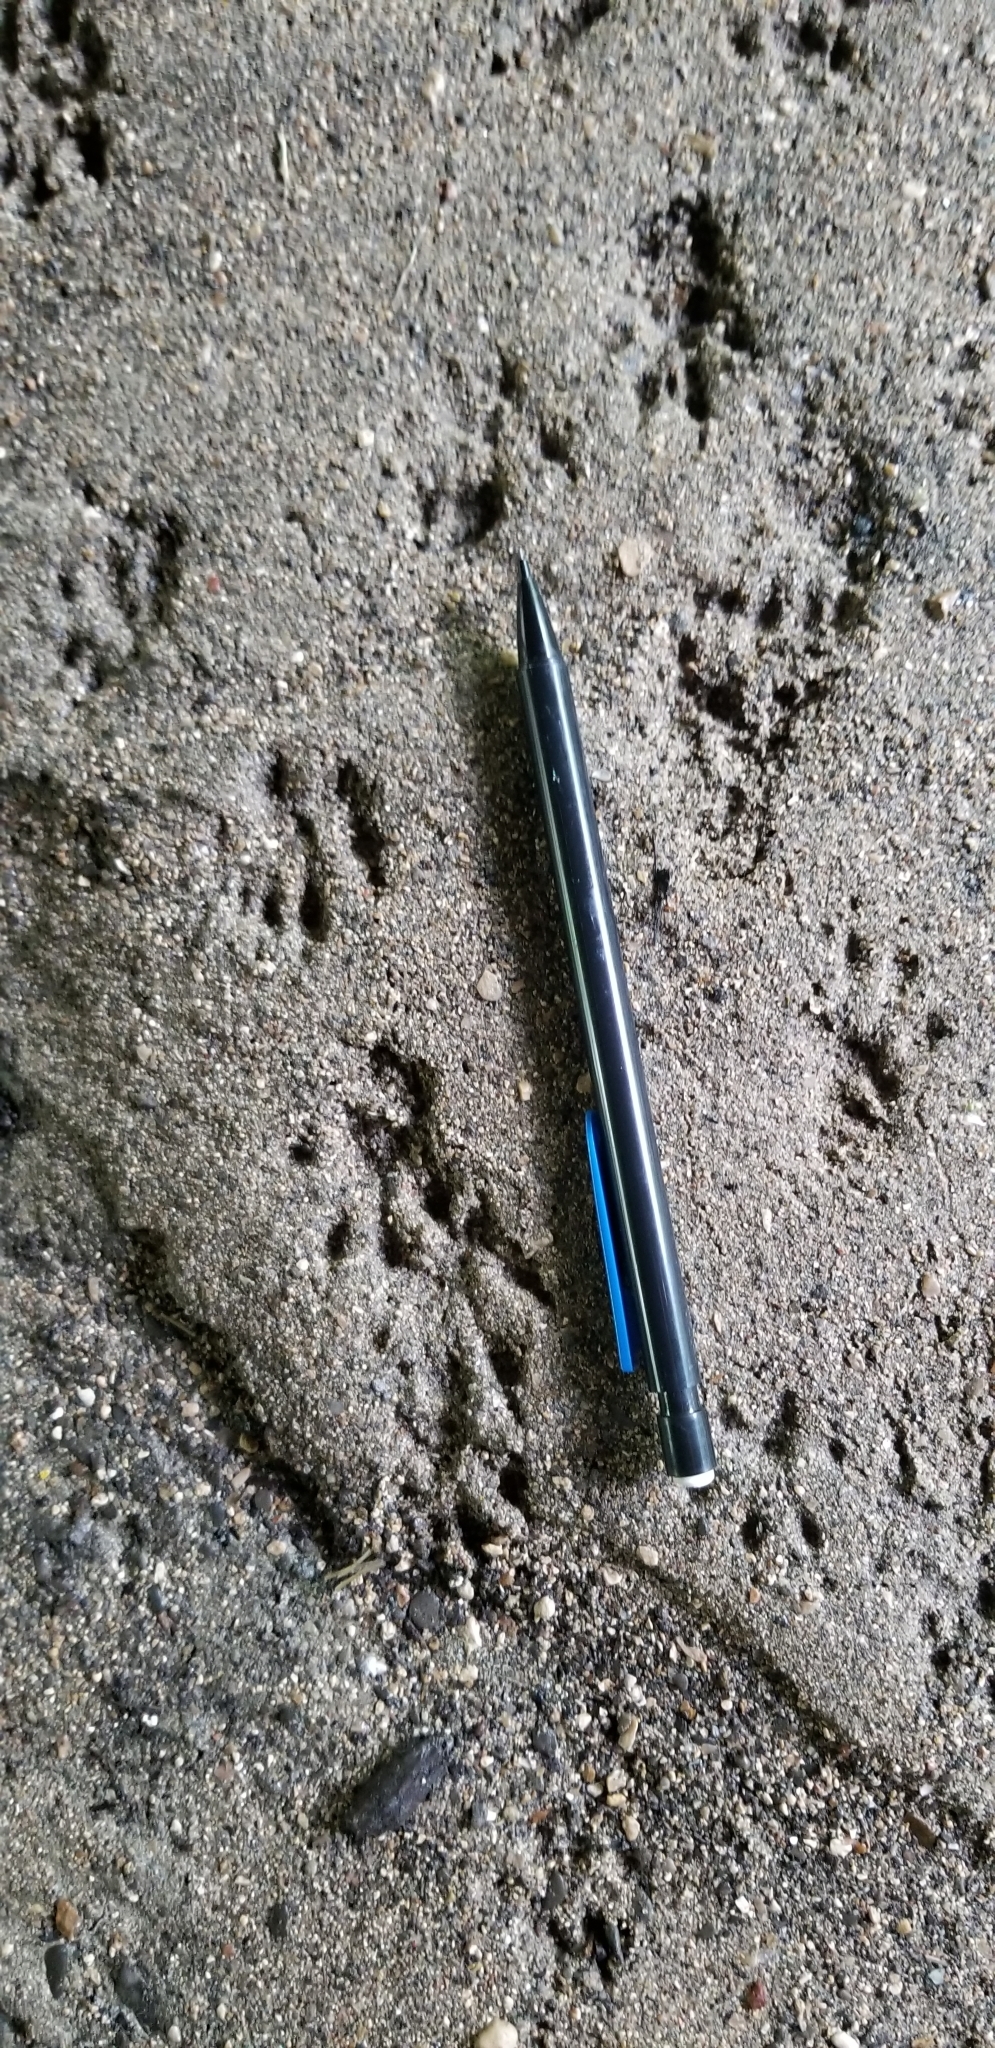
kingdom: Animalia
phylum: Chordata
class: Mammalia
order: Rodentia
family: Sciuridae
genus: Sciurus
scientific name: Sciurus niger
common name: Fox squirrel
